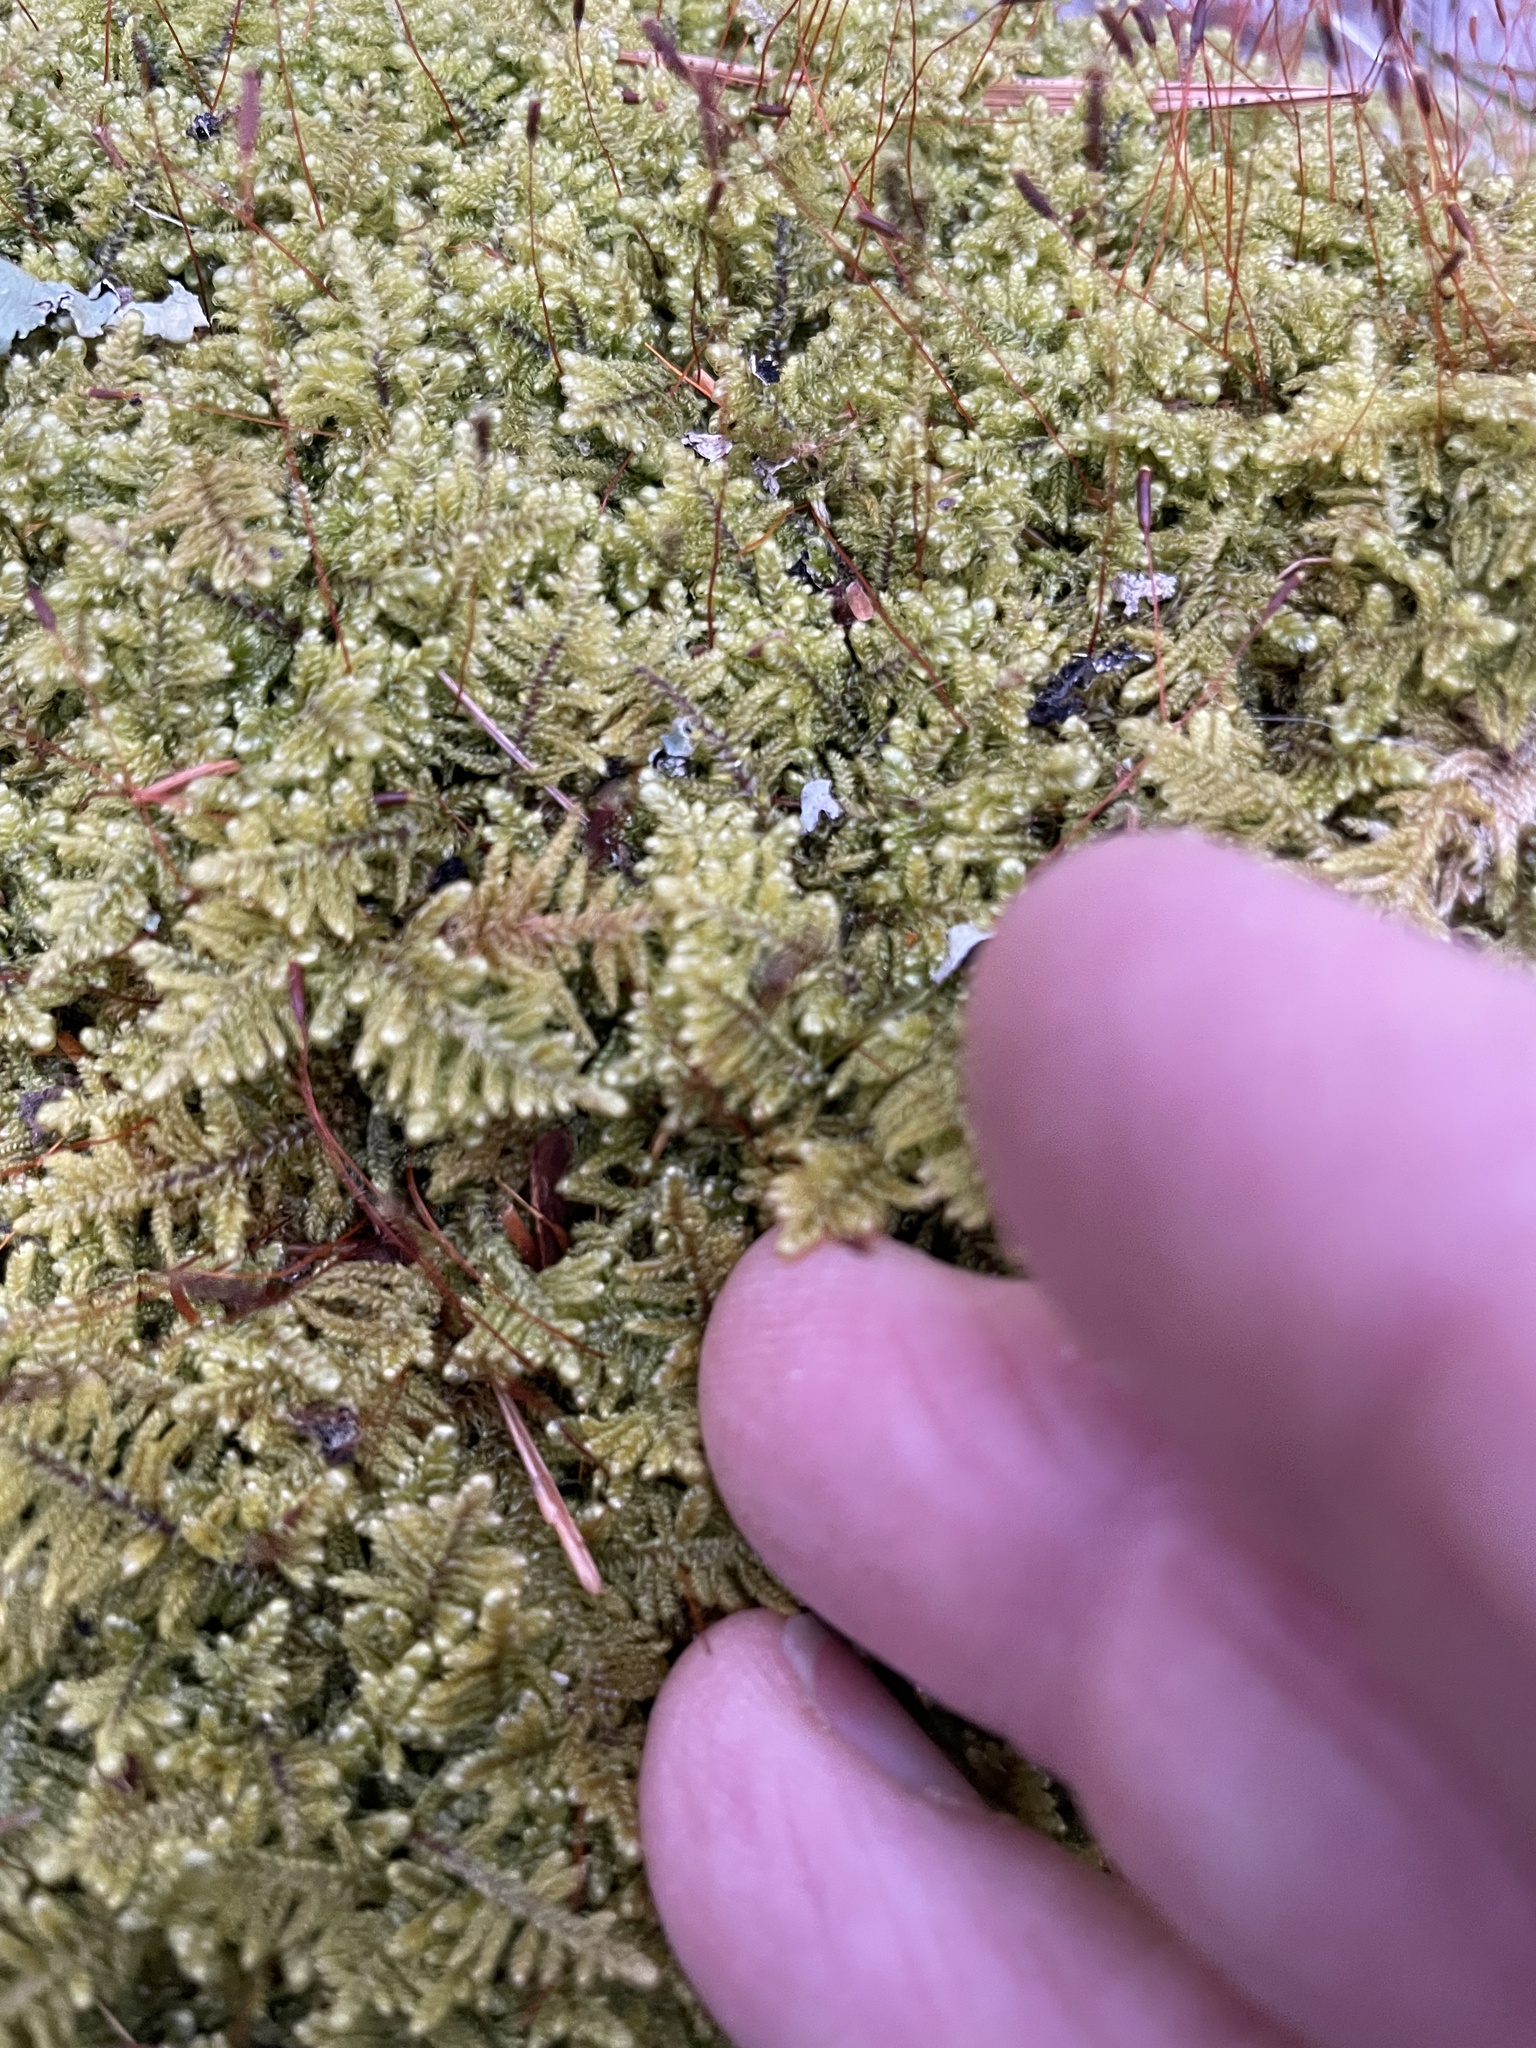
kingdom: Plantae
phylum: Bryophyta
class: Bryopsida
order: Hypnales
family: Callicladiaceae
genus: Callicladium
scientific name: Callicladium imponens
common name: Brocade moss
